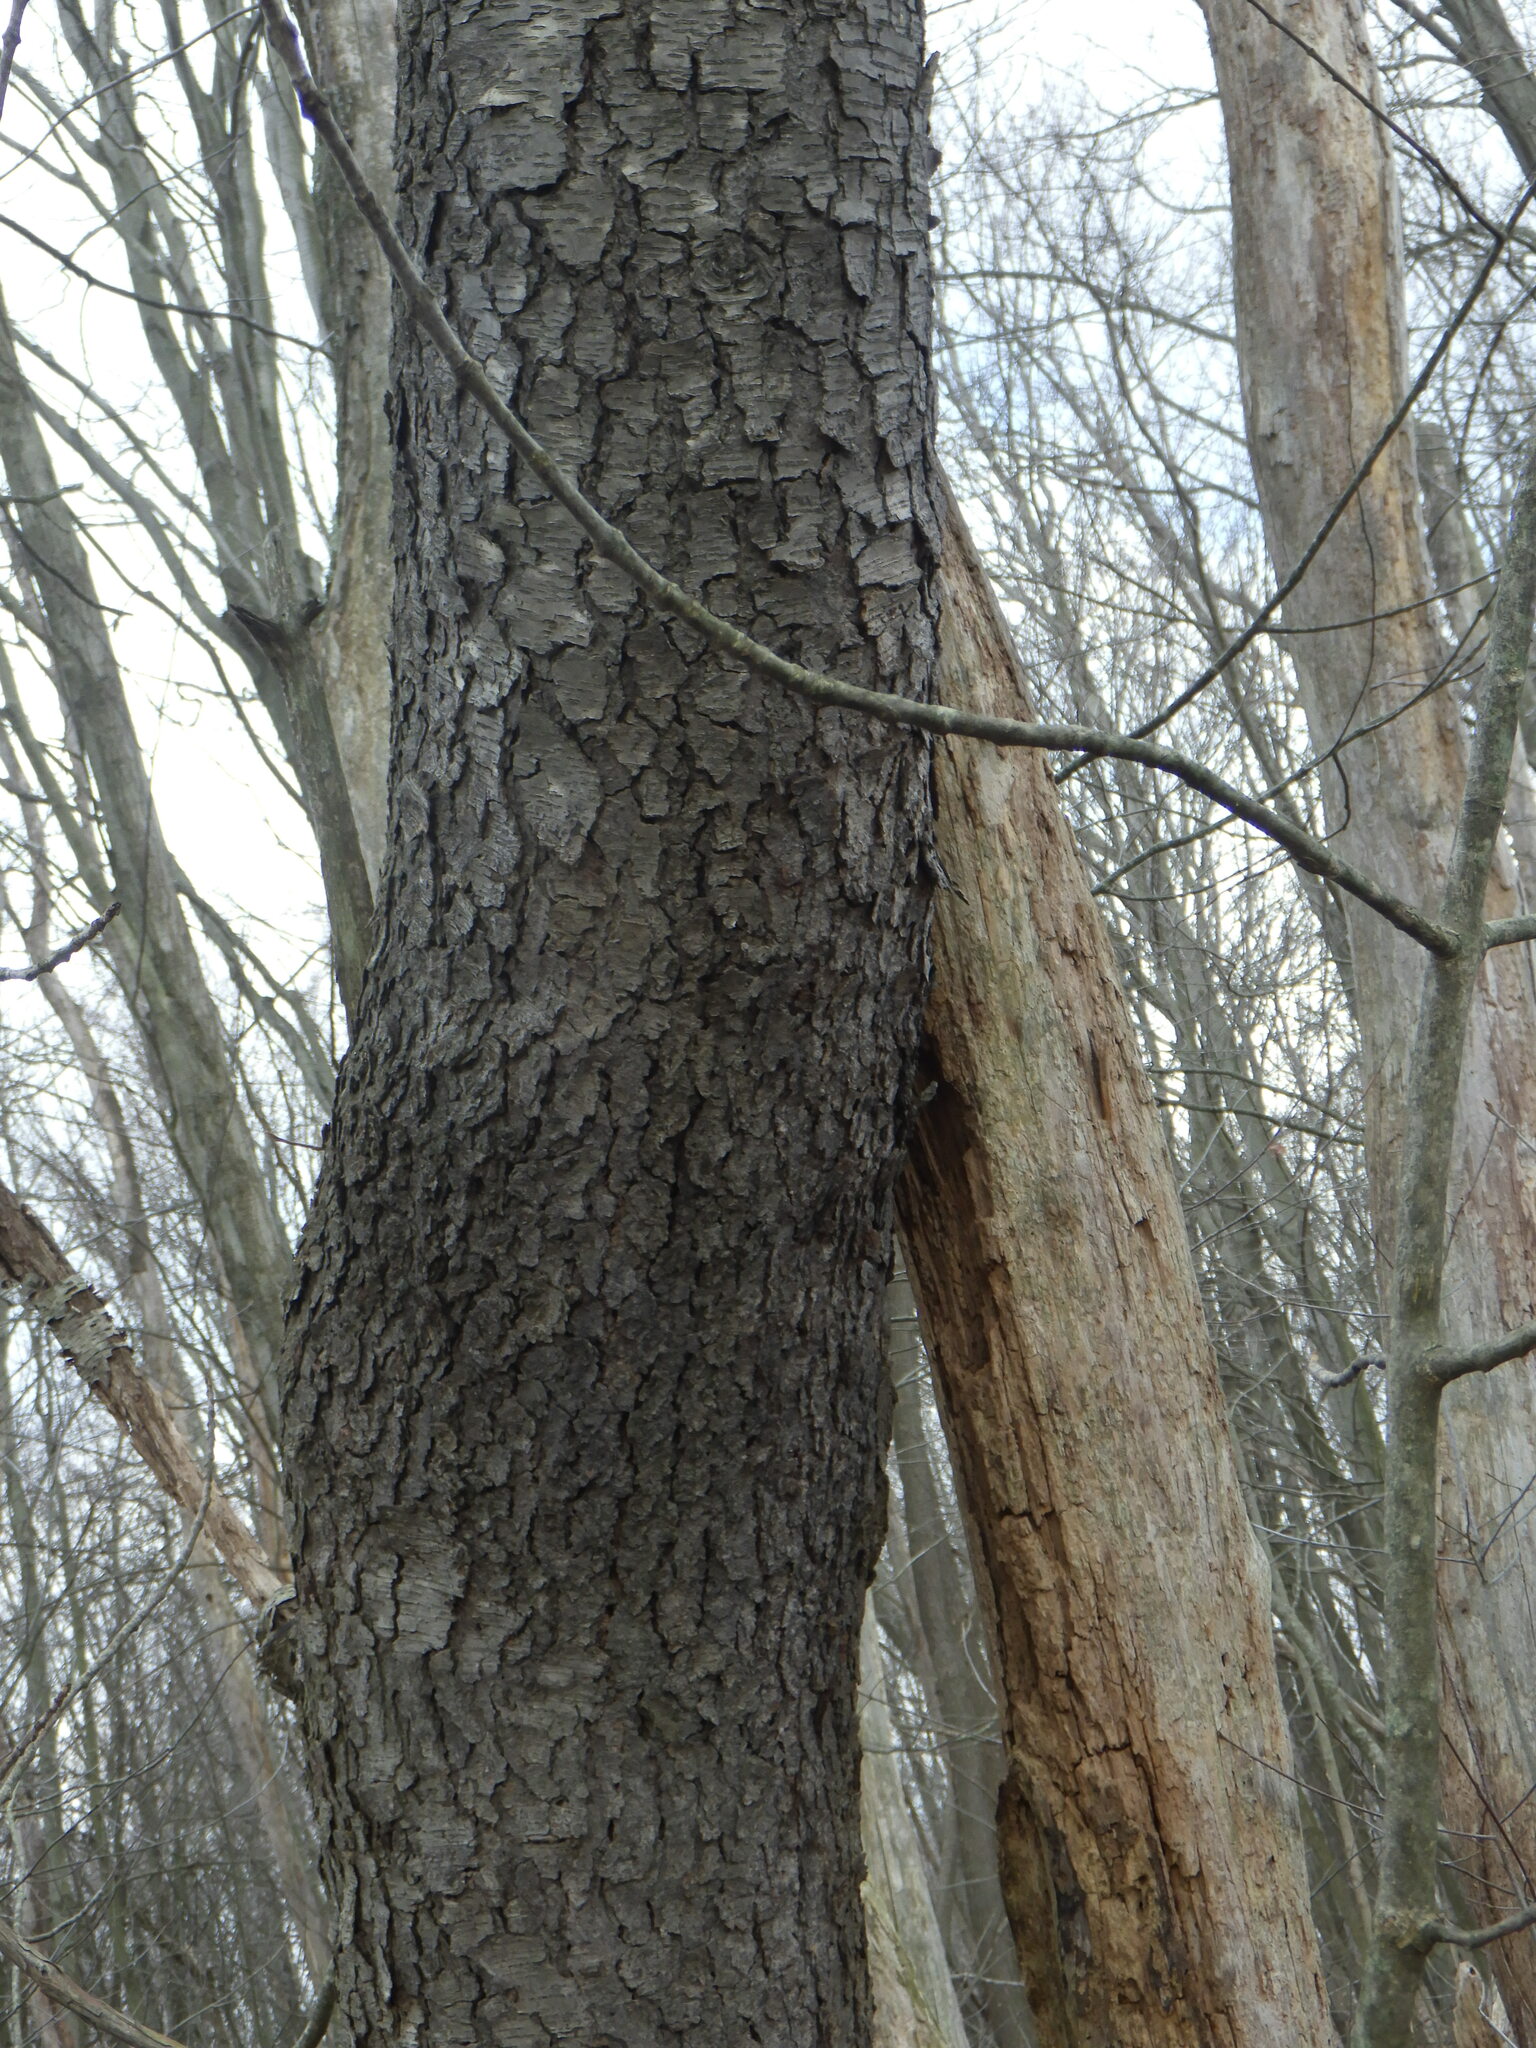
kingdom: Plantae
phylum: Tracheophyta
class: Magnoliopsida
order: Rosales
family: Rosaceae
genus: Prunus
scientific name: Prunus serotina
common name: Black cherry
